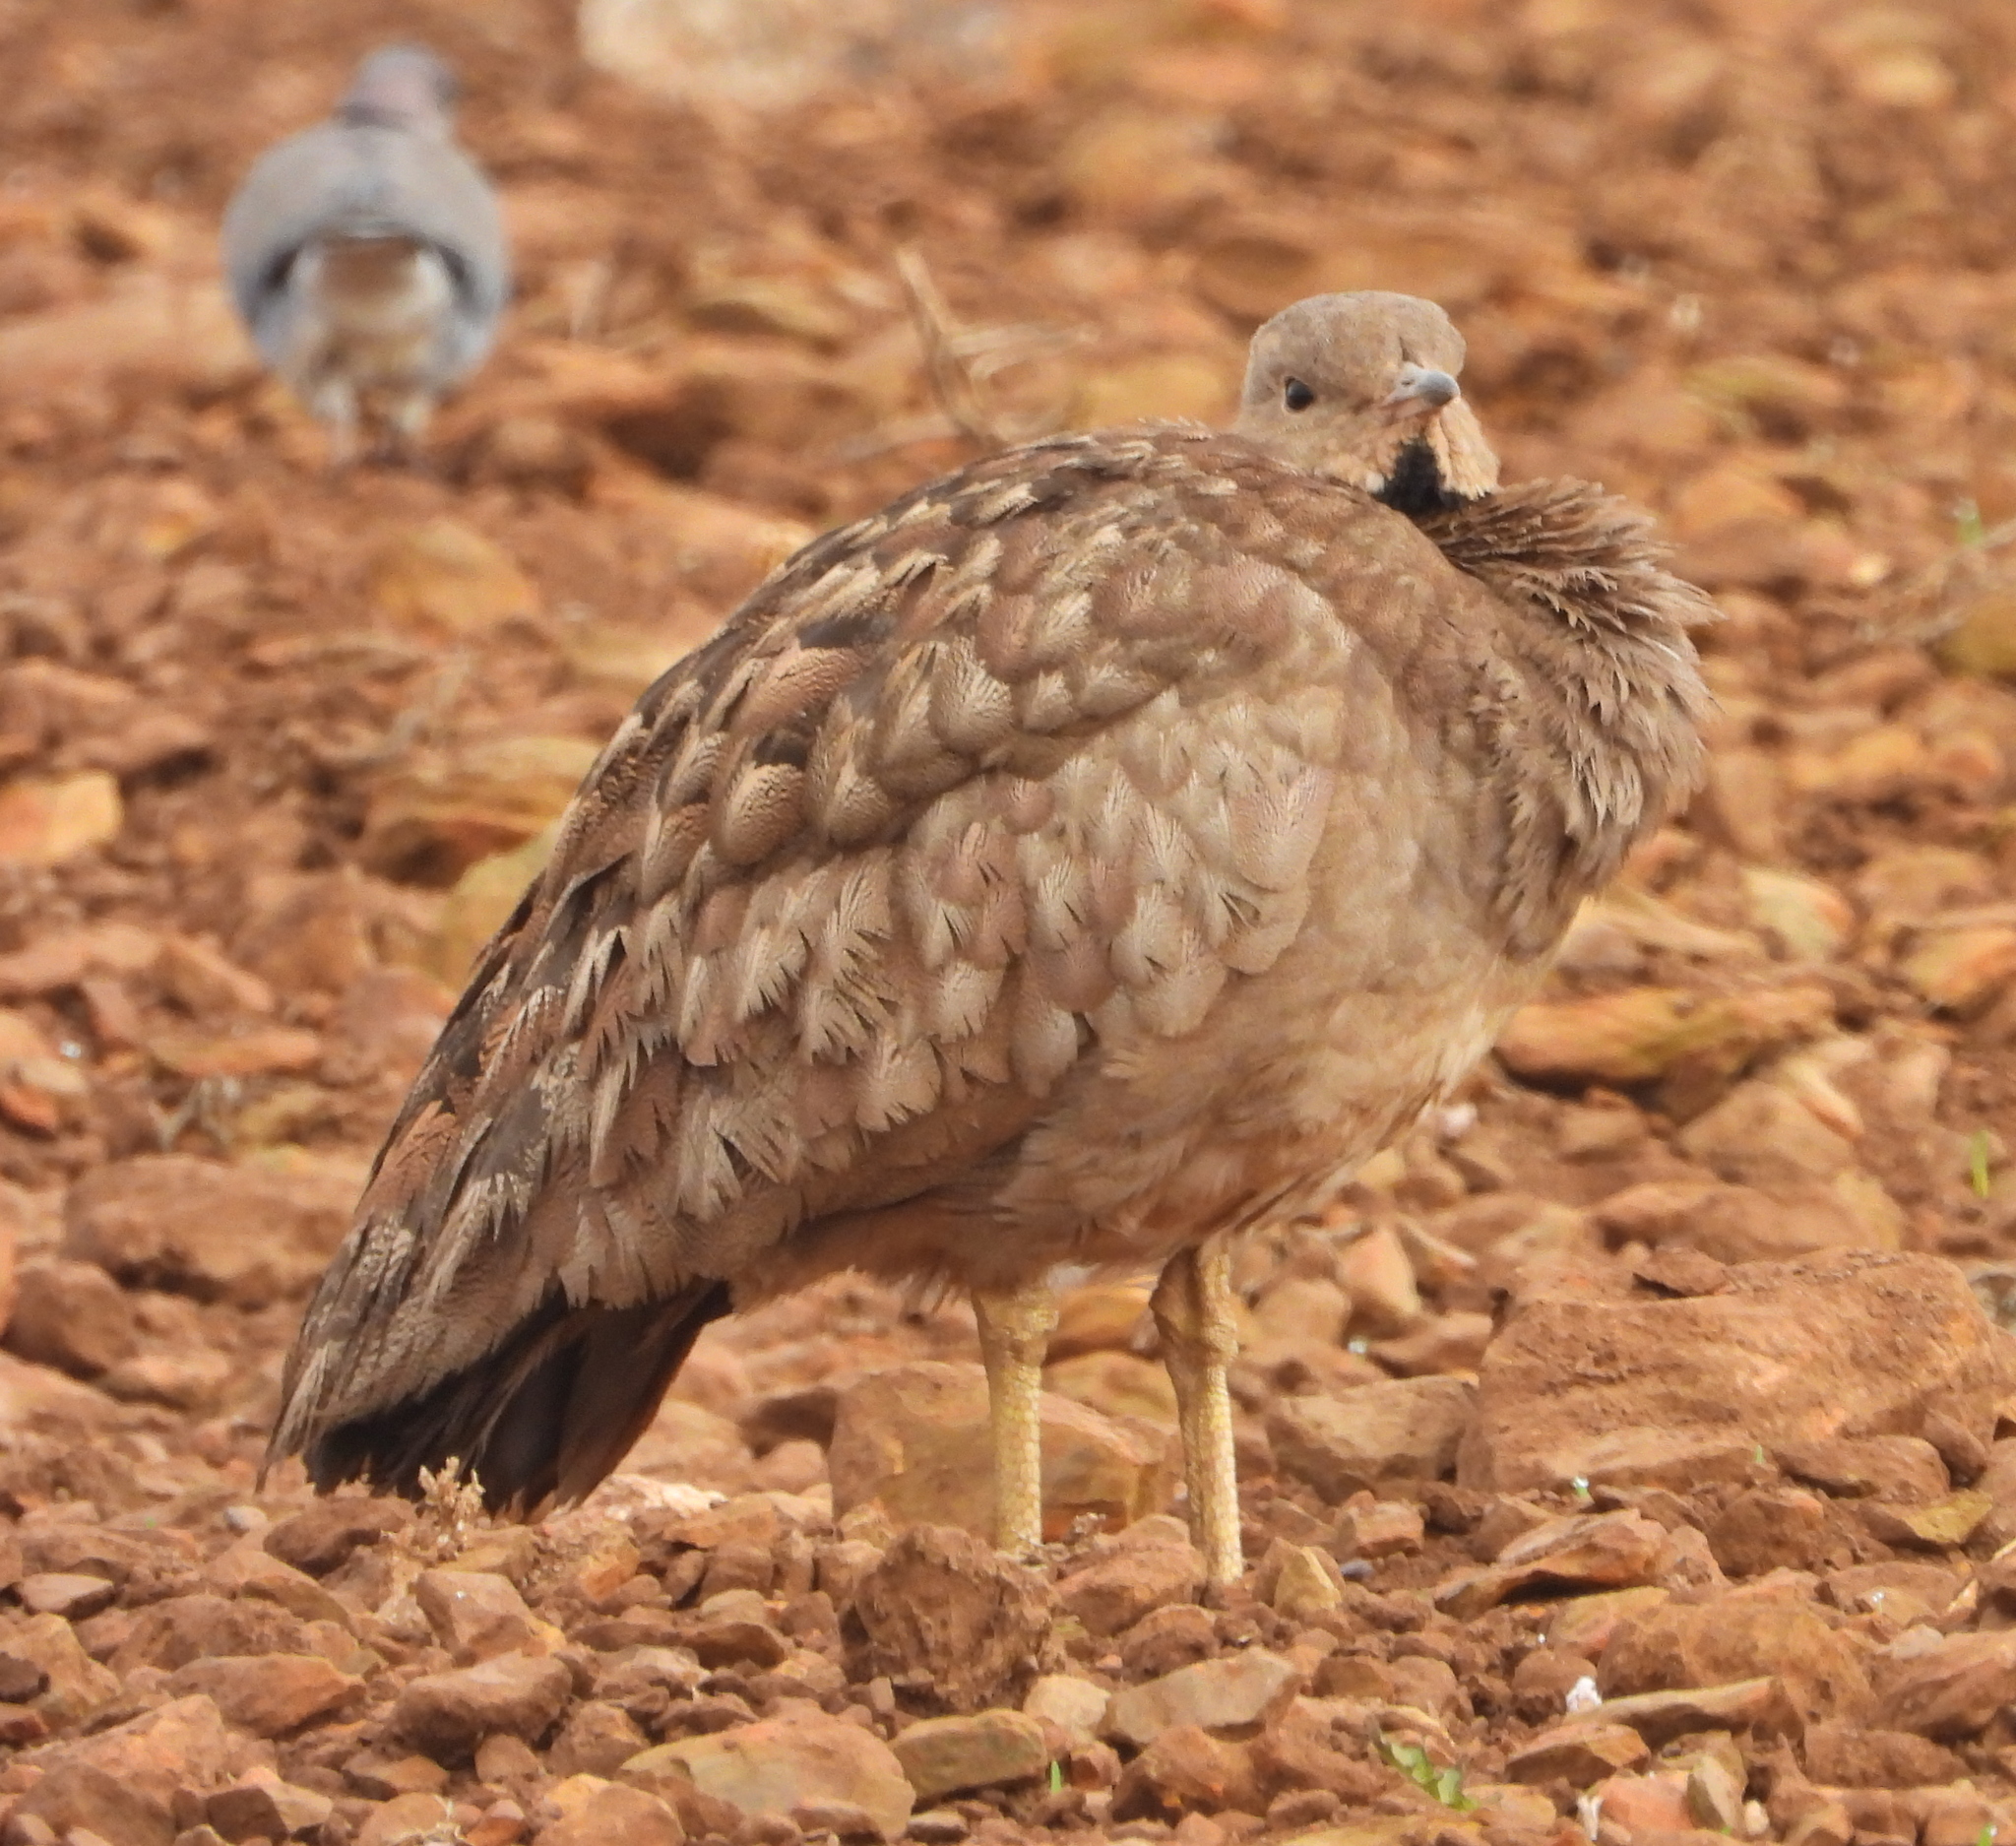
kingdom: Animalia
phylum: Chordata
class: Aves
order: Otidiformes
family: Otididae
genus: Eupodotis
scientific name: Eupodotis vigorsii
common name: Karoo korhaan
